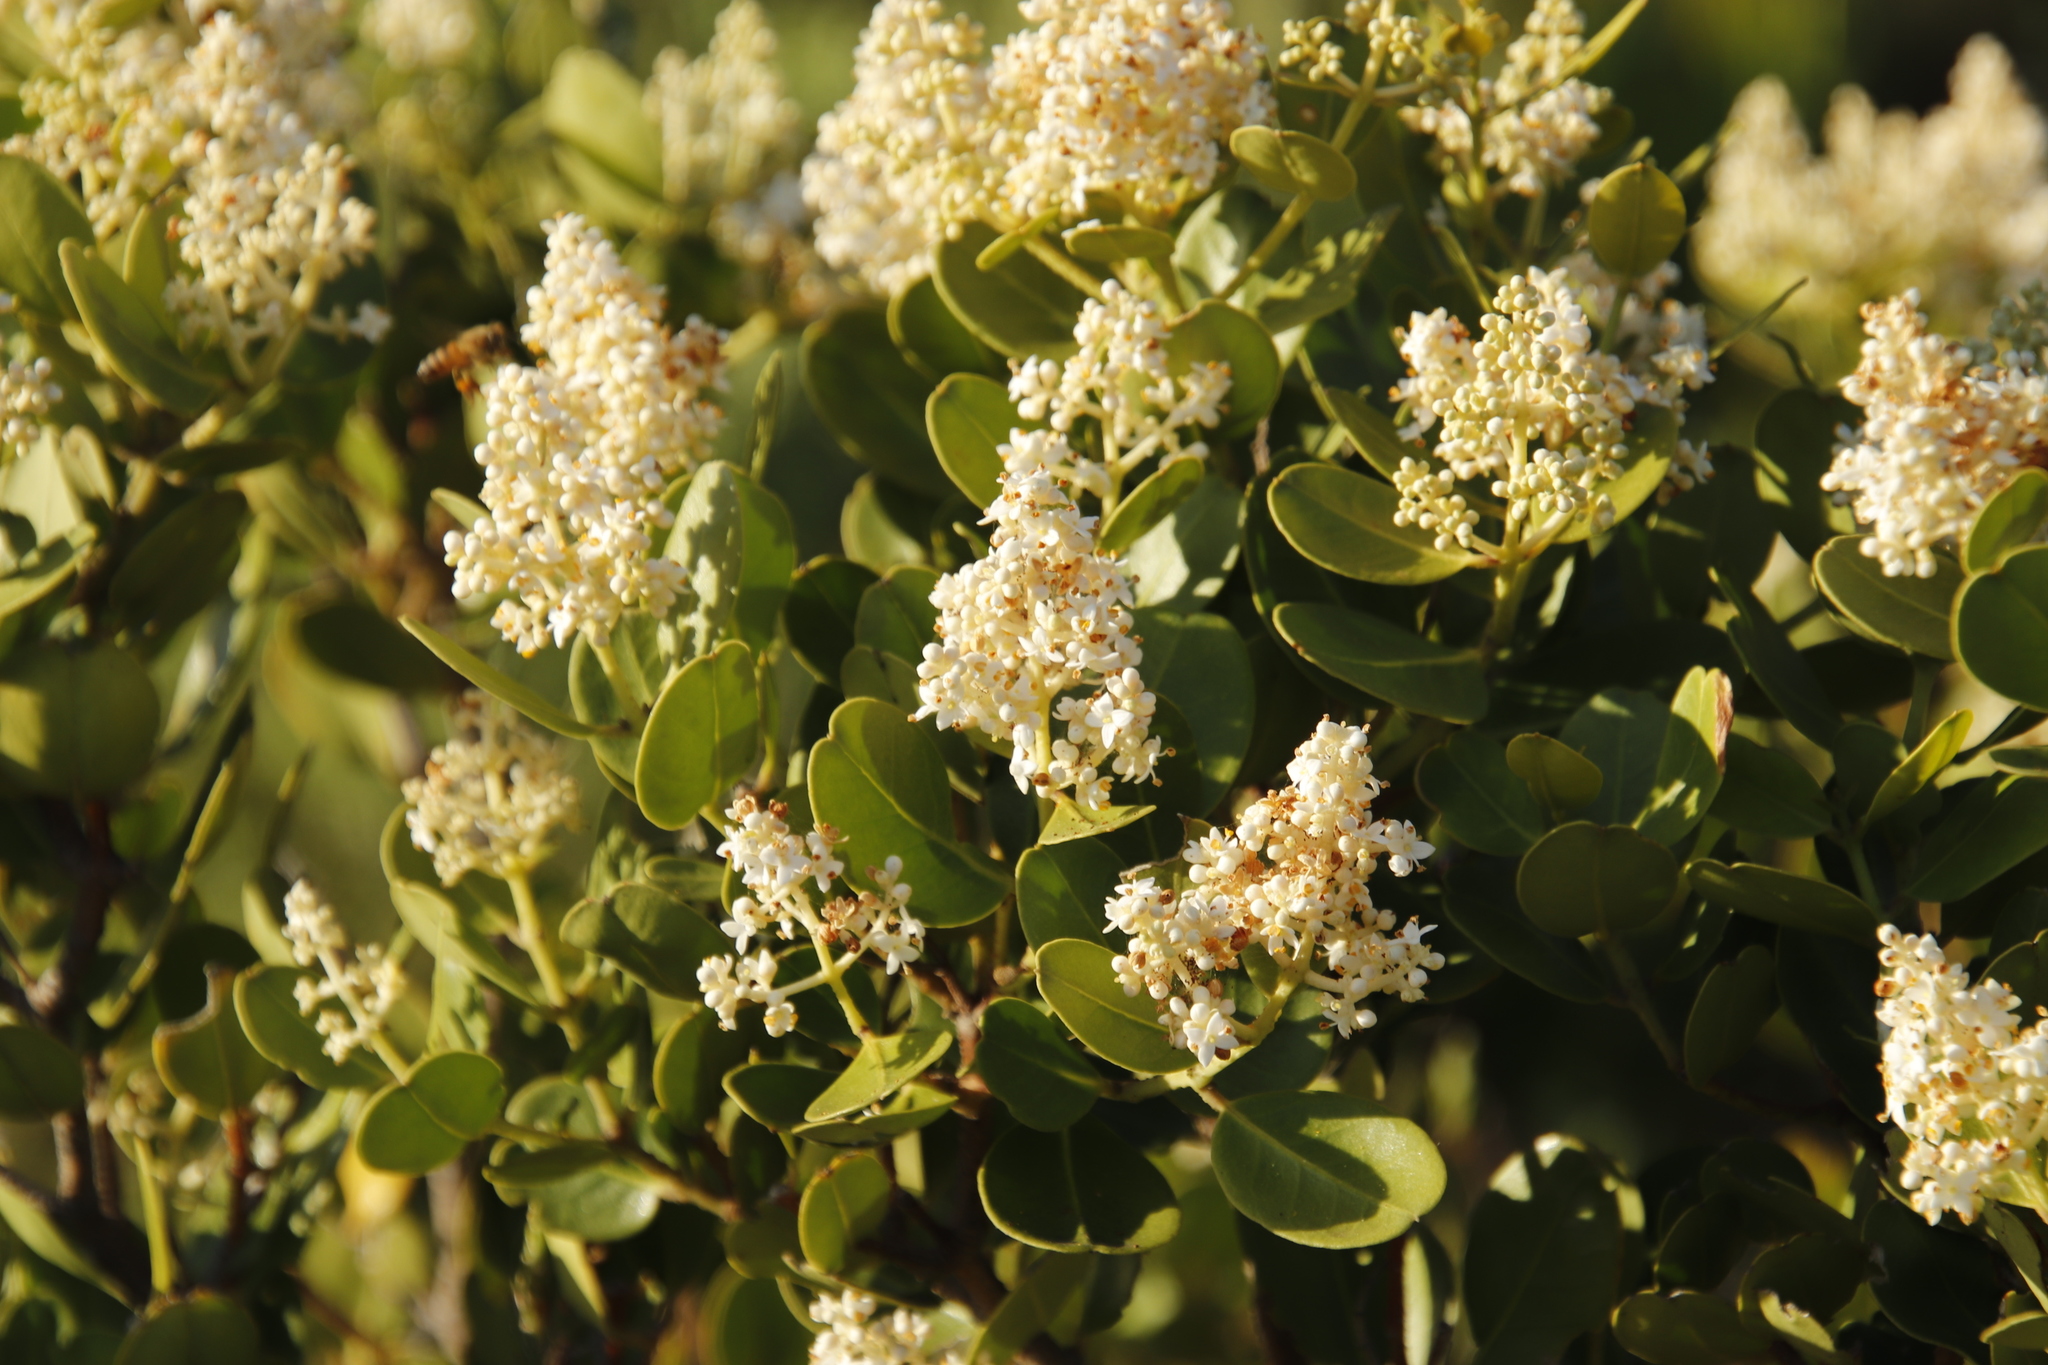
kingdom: Plantae
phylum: Tracheophyta
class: Magnoliopsida
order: Lamiales
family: Oleaceae
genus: Olea
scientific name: Olea capensis
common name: Black ironwood
